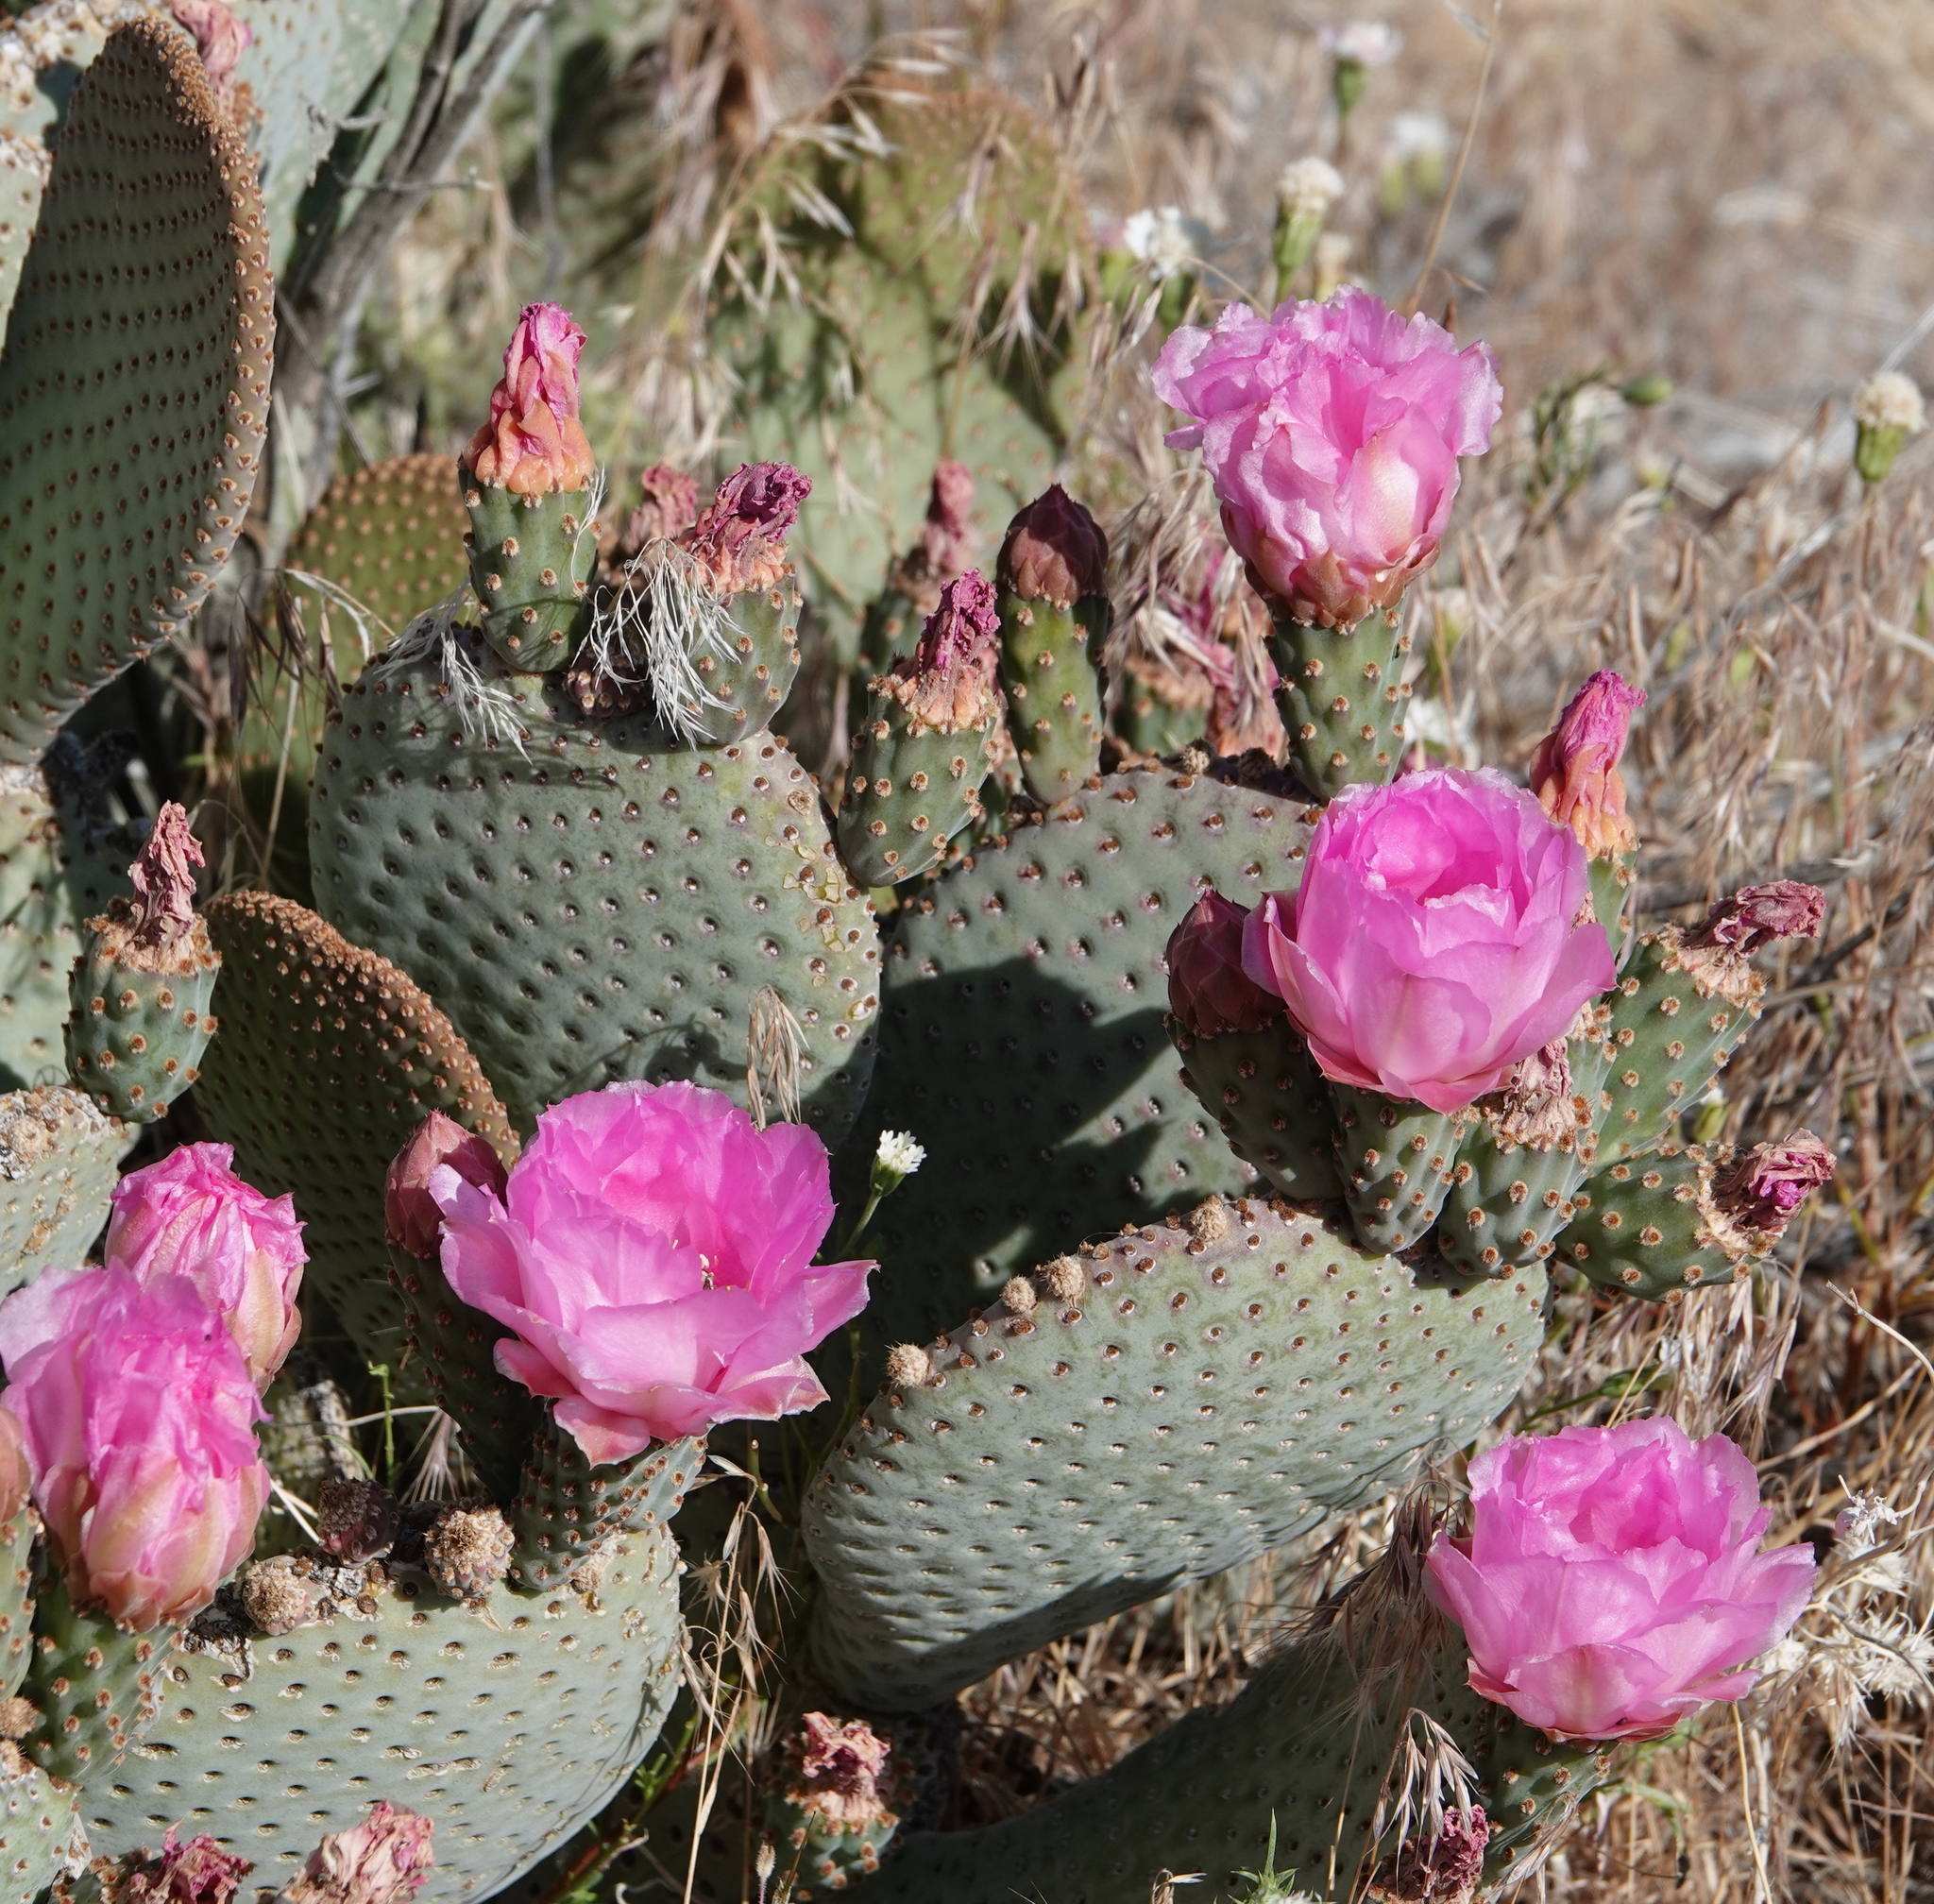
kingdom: Plantae
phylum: Tracheophyta
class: Magnoliopsida
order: Caryophyllales
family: Cactaceae
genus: Opuntia
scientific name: Opuntia basilaris
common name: Beavertail prickly-pear
